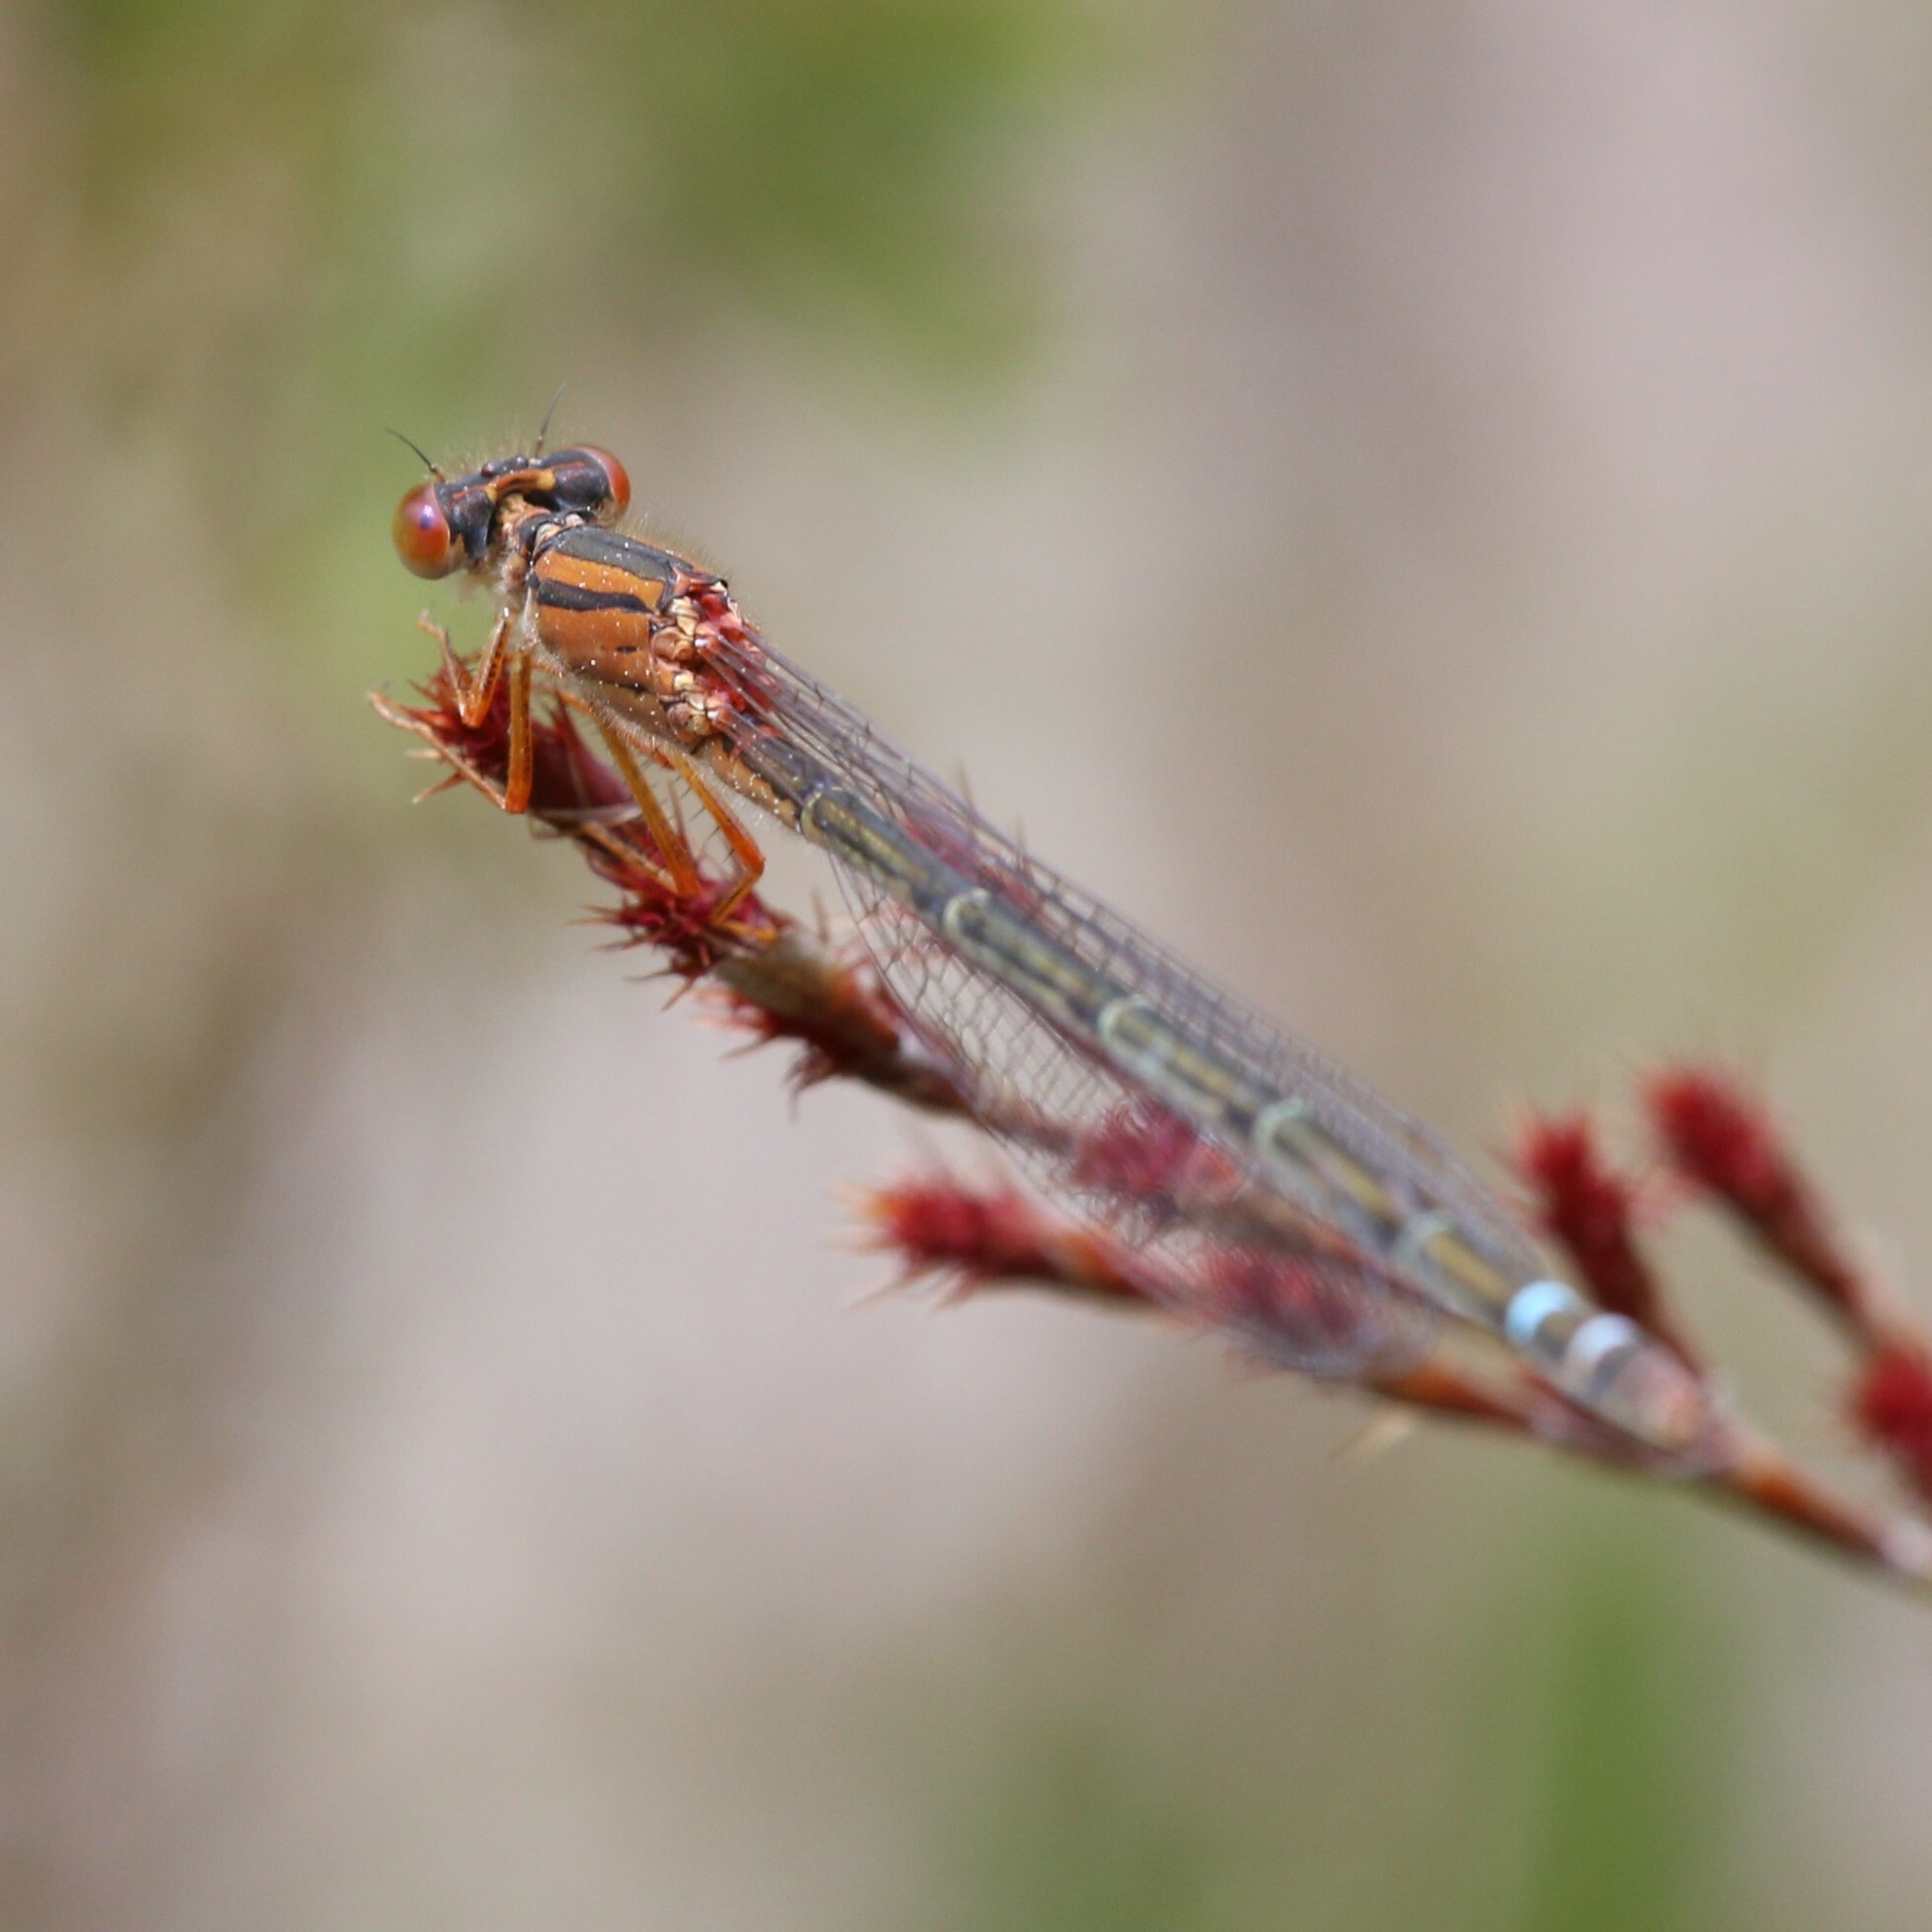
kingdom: Animalia
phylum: Arthropoda
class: Insecta
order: Odonata
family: Coenagrionidae
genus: Xanthagrion
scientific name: Xanthagrion erythroneurum
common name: Red and blue damsel
